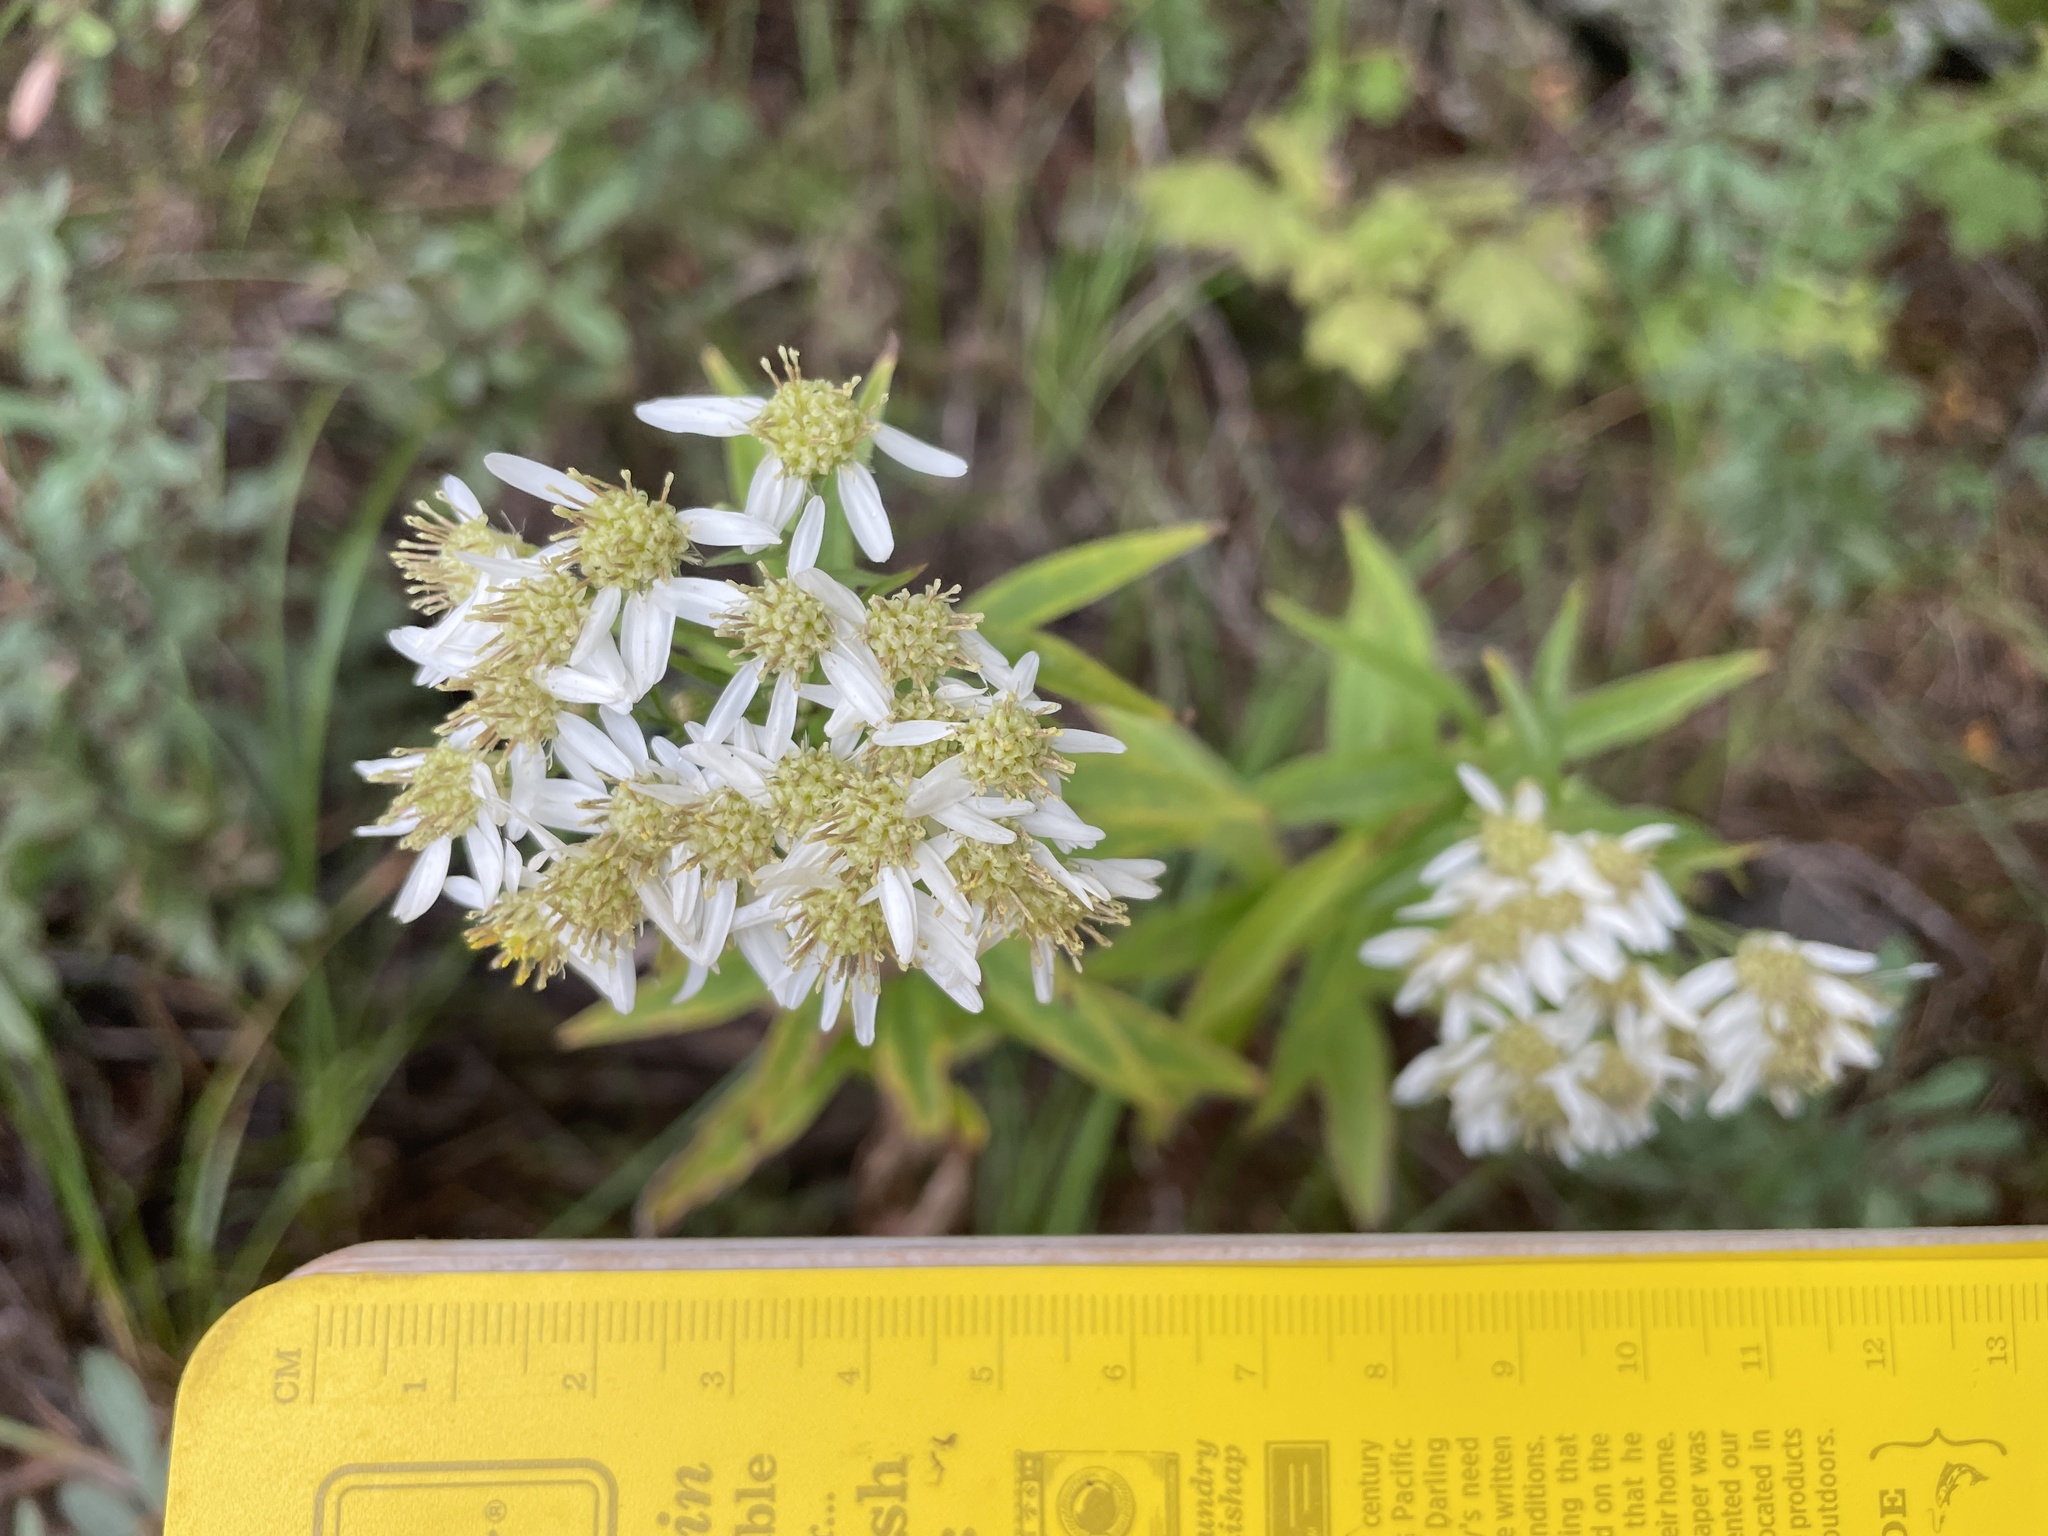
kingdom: Plantae
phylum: Tracheophyta
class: Magnoliopsida
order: Asterales
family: Asteraceae
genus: Doellingeria
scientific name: Doellingeria umbellata
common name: Flat-top white aster
